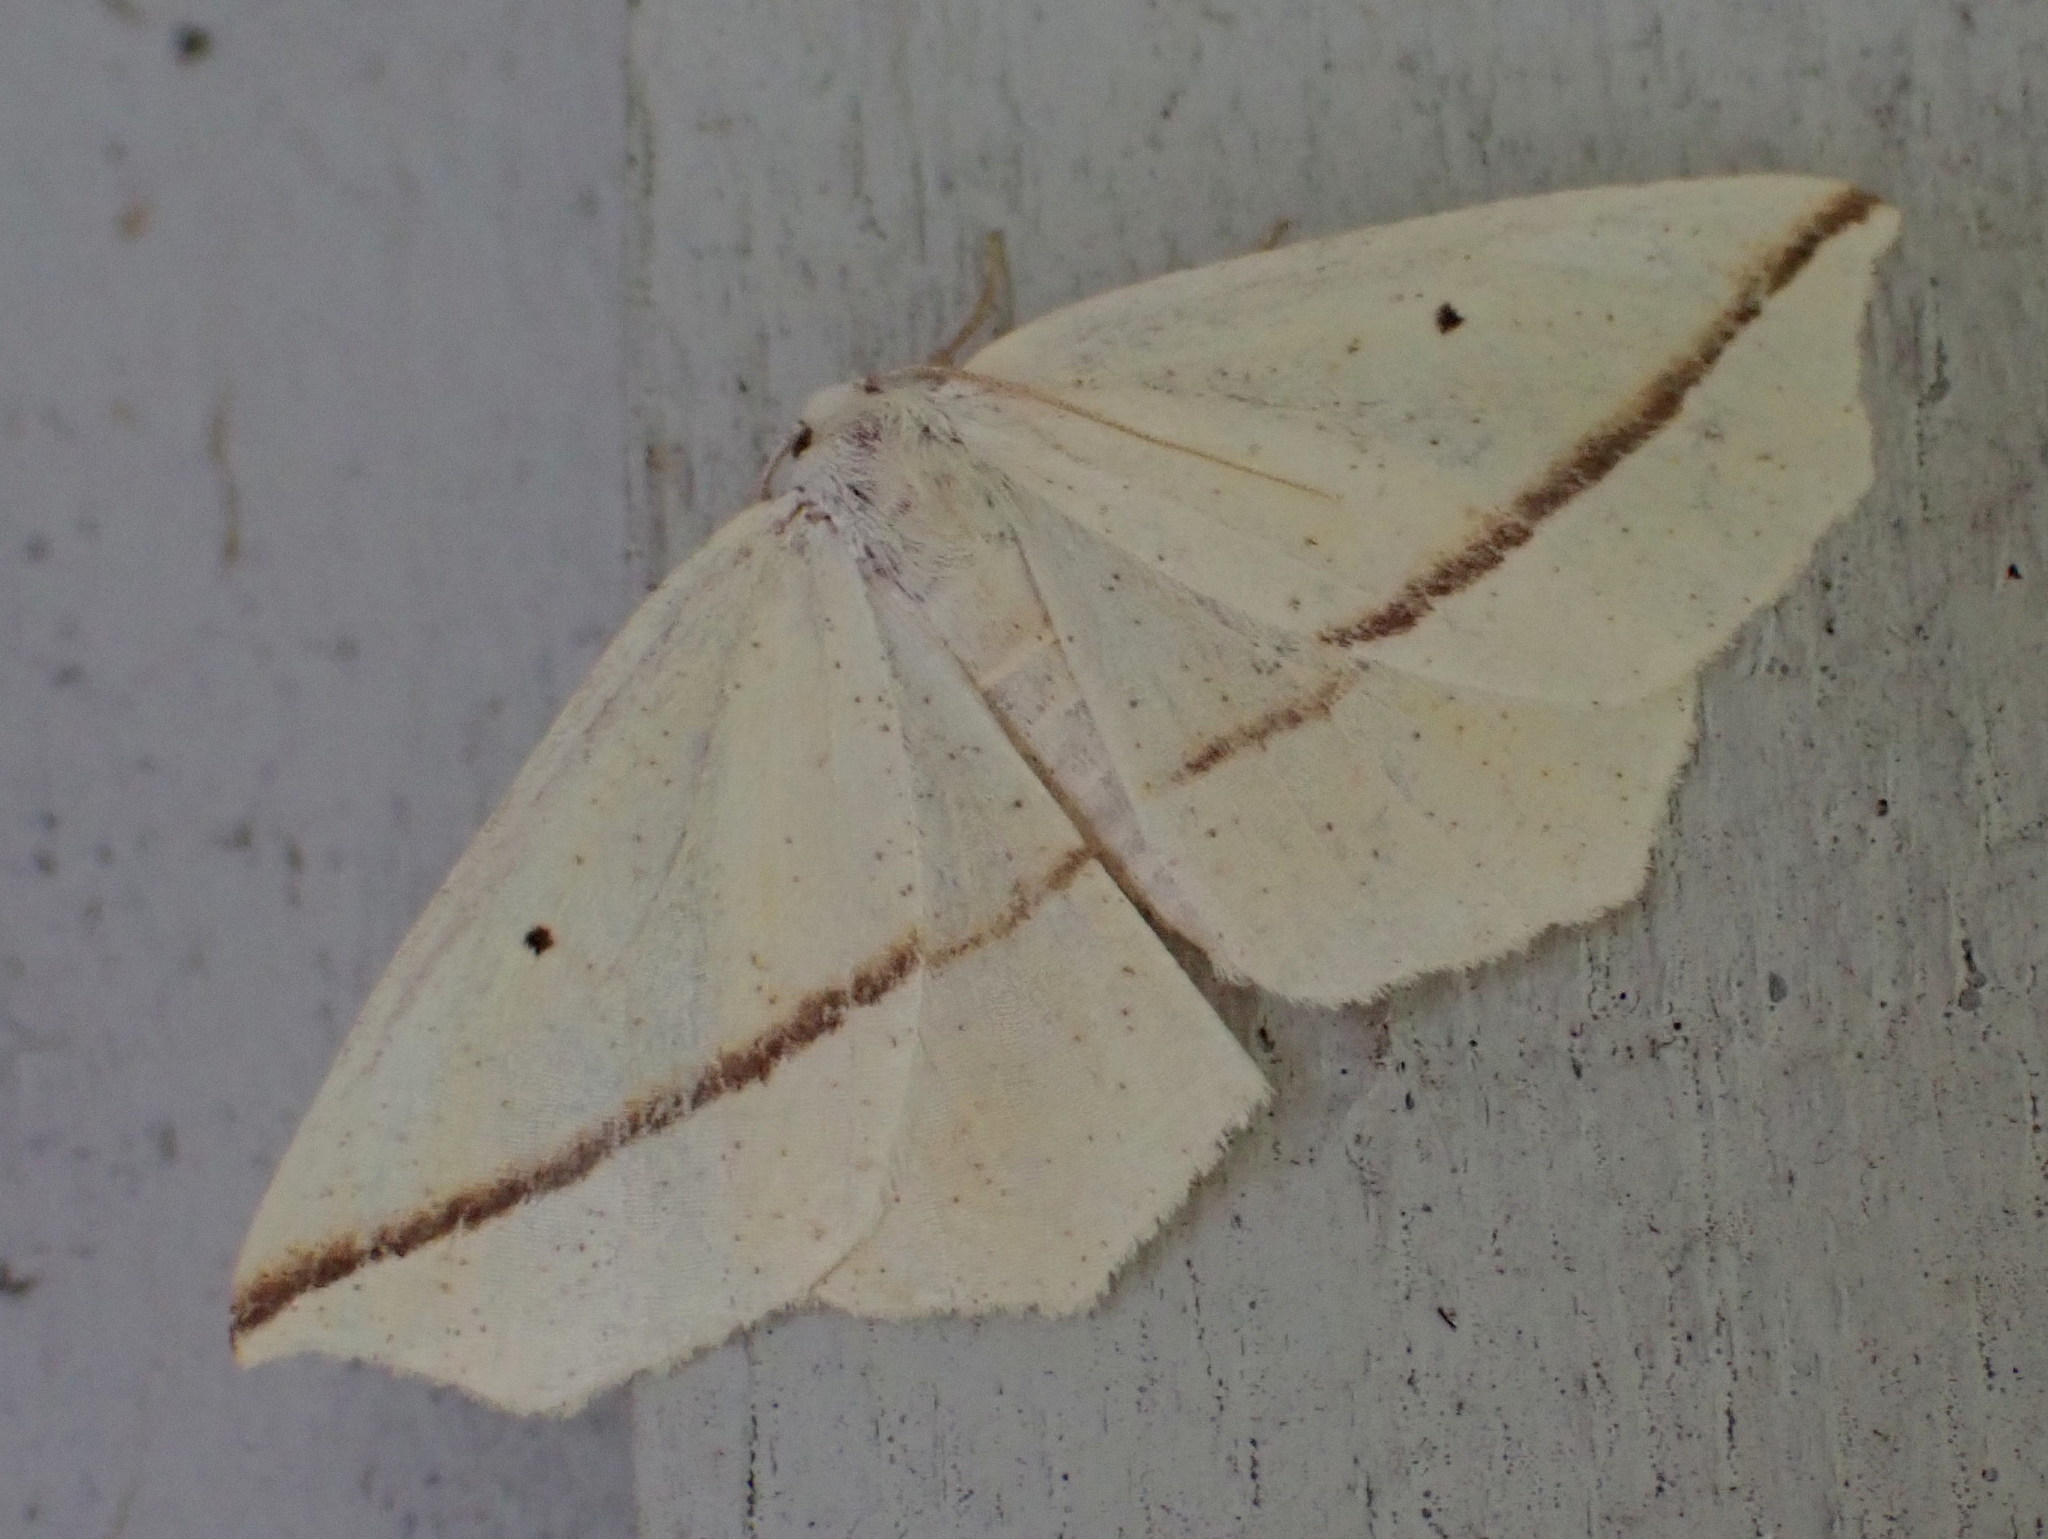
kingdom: Animalia
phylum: Arthropoda
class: Insecta
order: Lepidoptera
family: Geometridae
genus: Tetracis
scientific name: Tetracis crocallata
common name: Yellow slant-line
